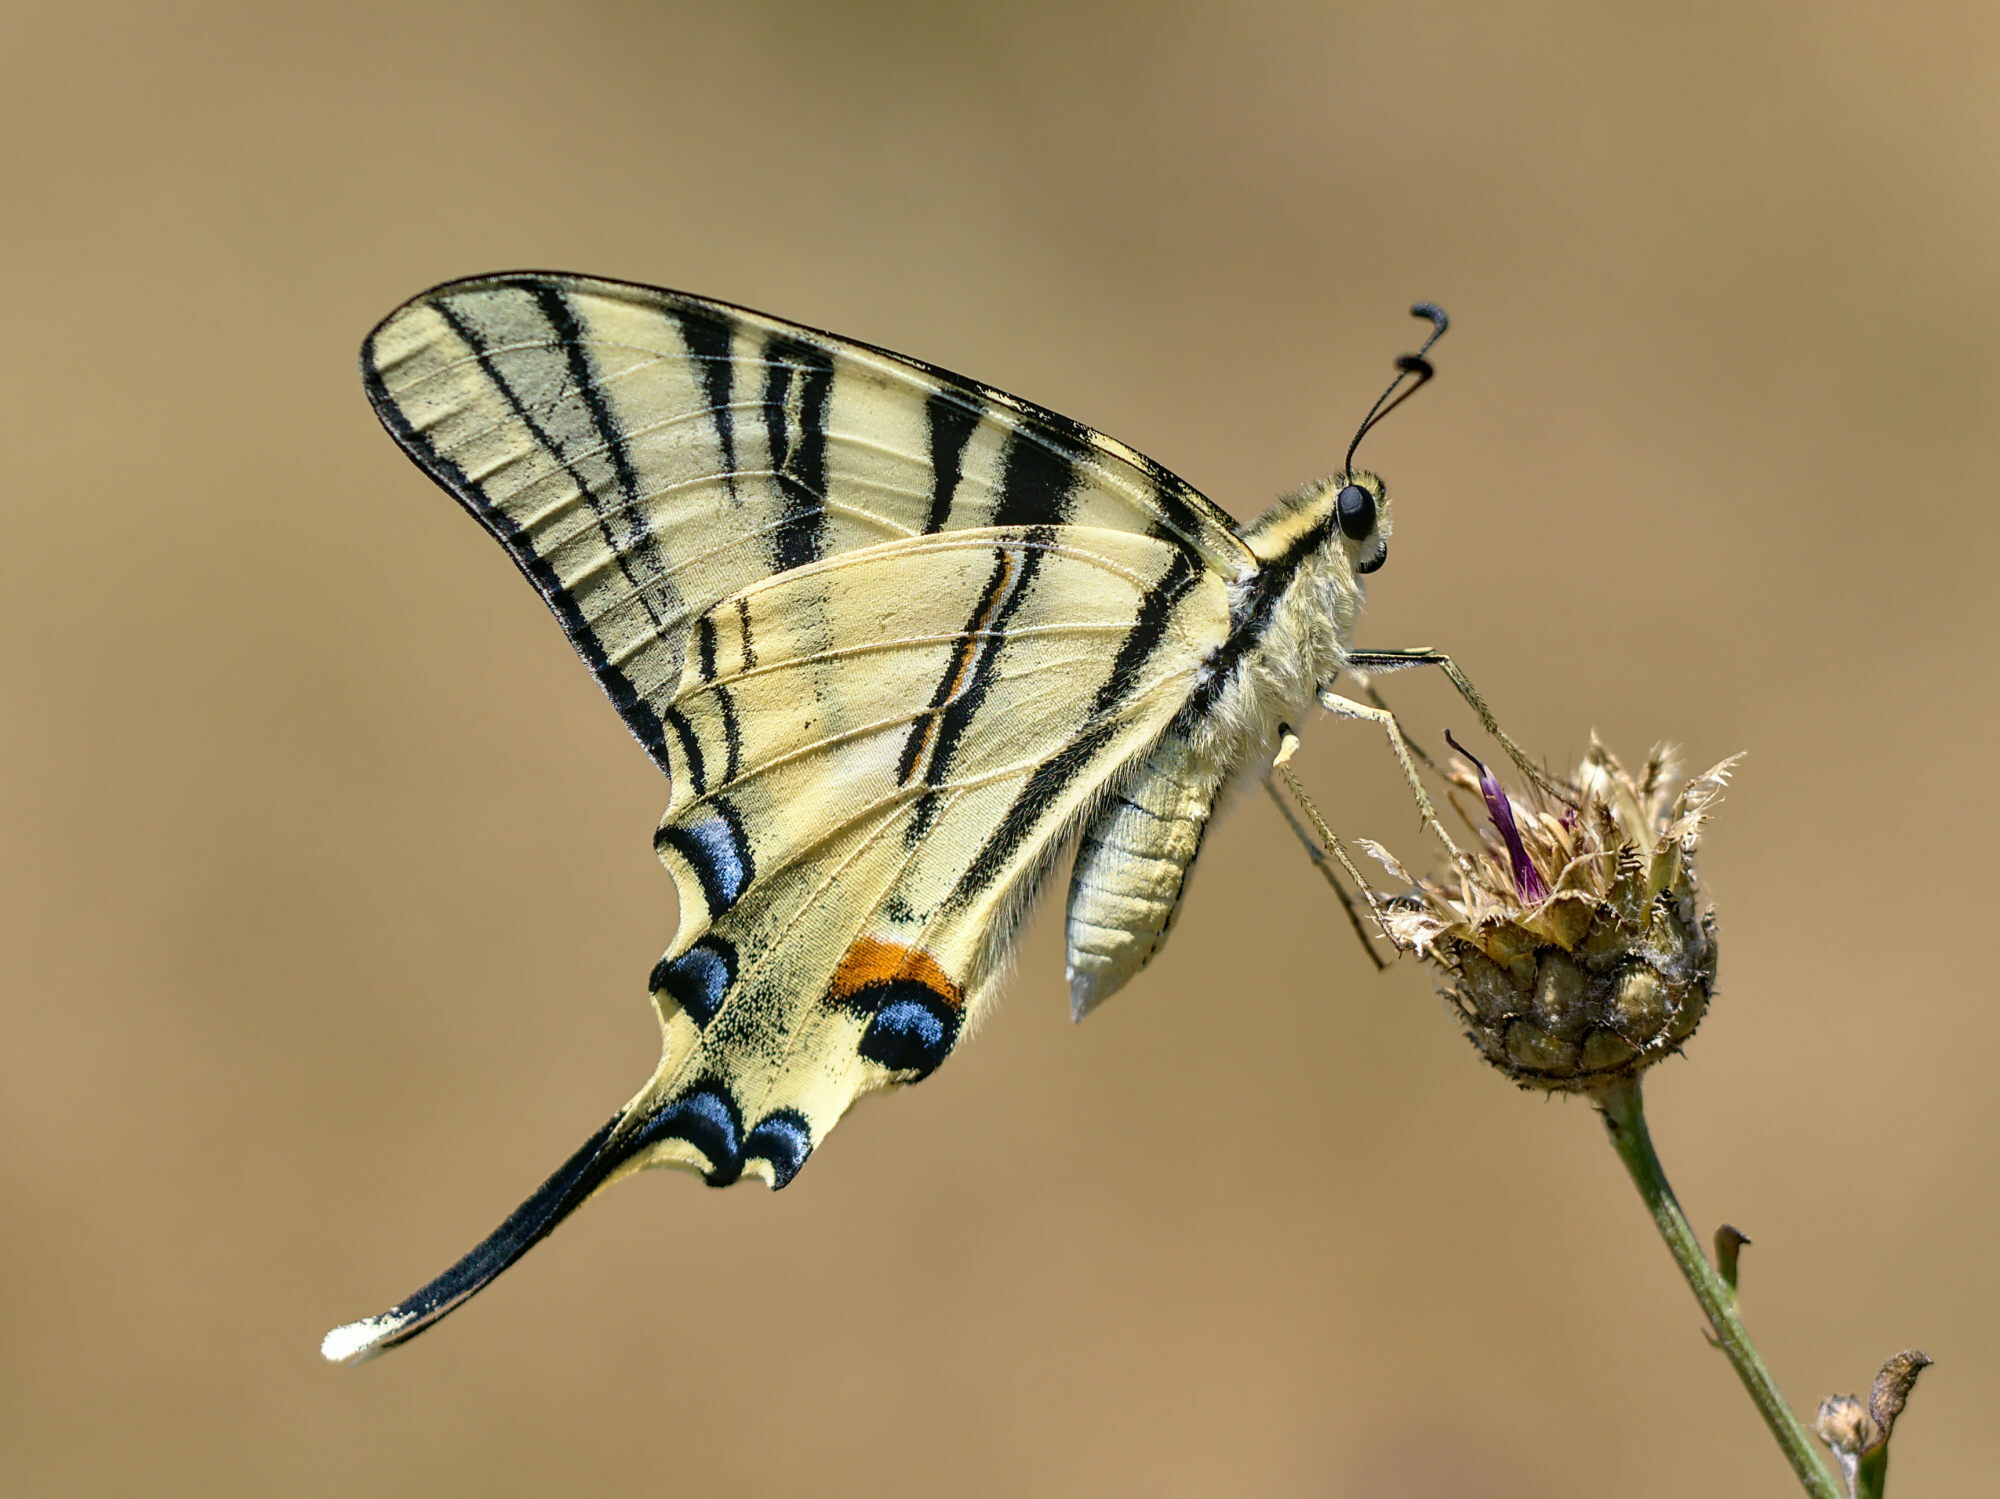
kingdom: Animalia
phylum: Arthropoda
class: Insecta
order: Lepidoptera
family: Papilionidae
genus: Iphiclides
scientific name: Iphiclides podalirius
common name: Scarce swallowtail
